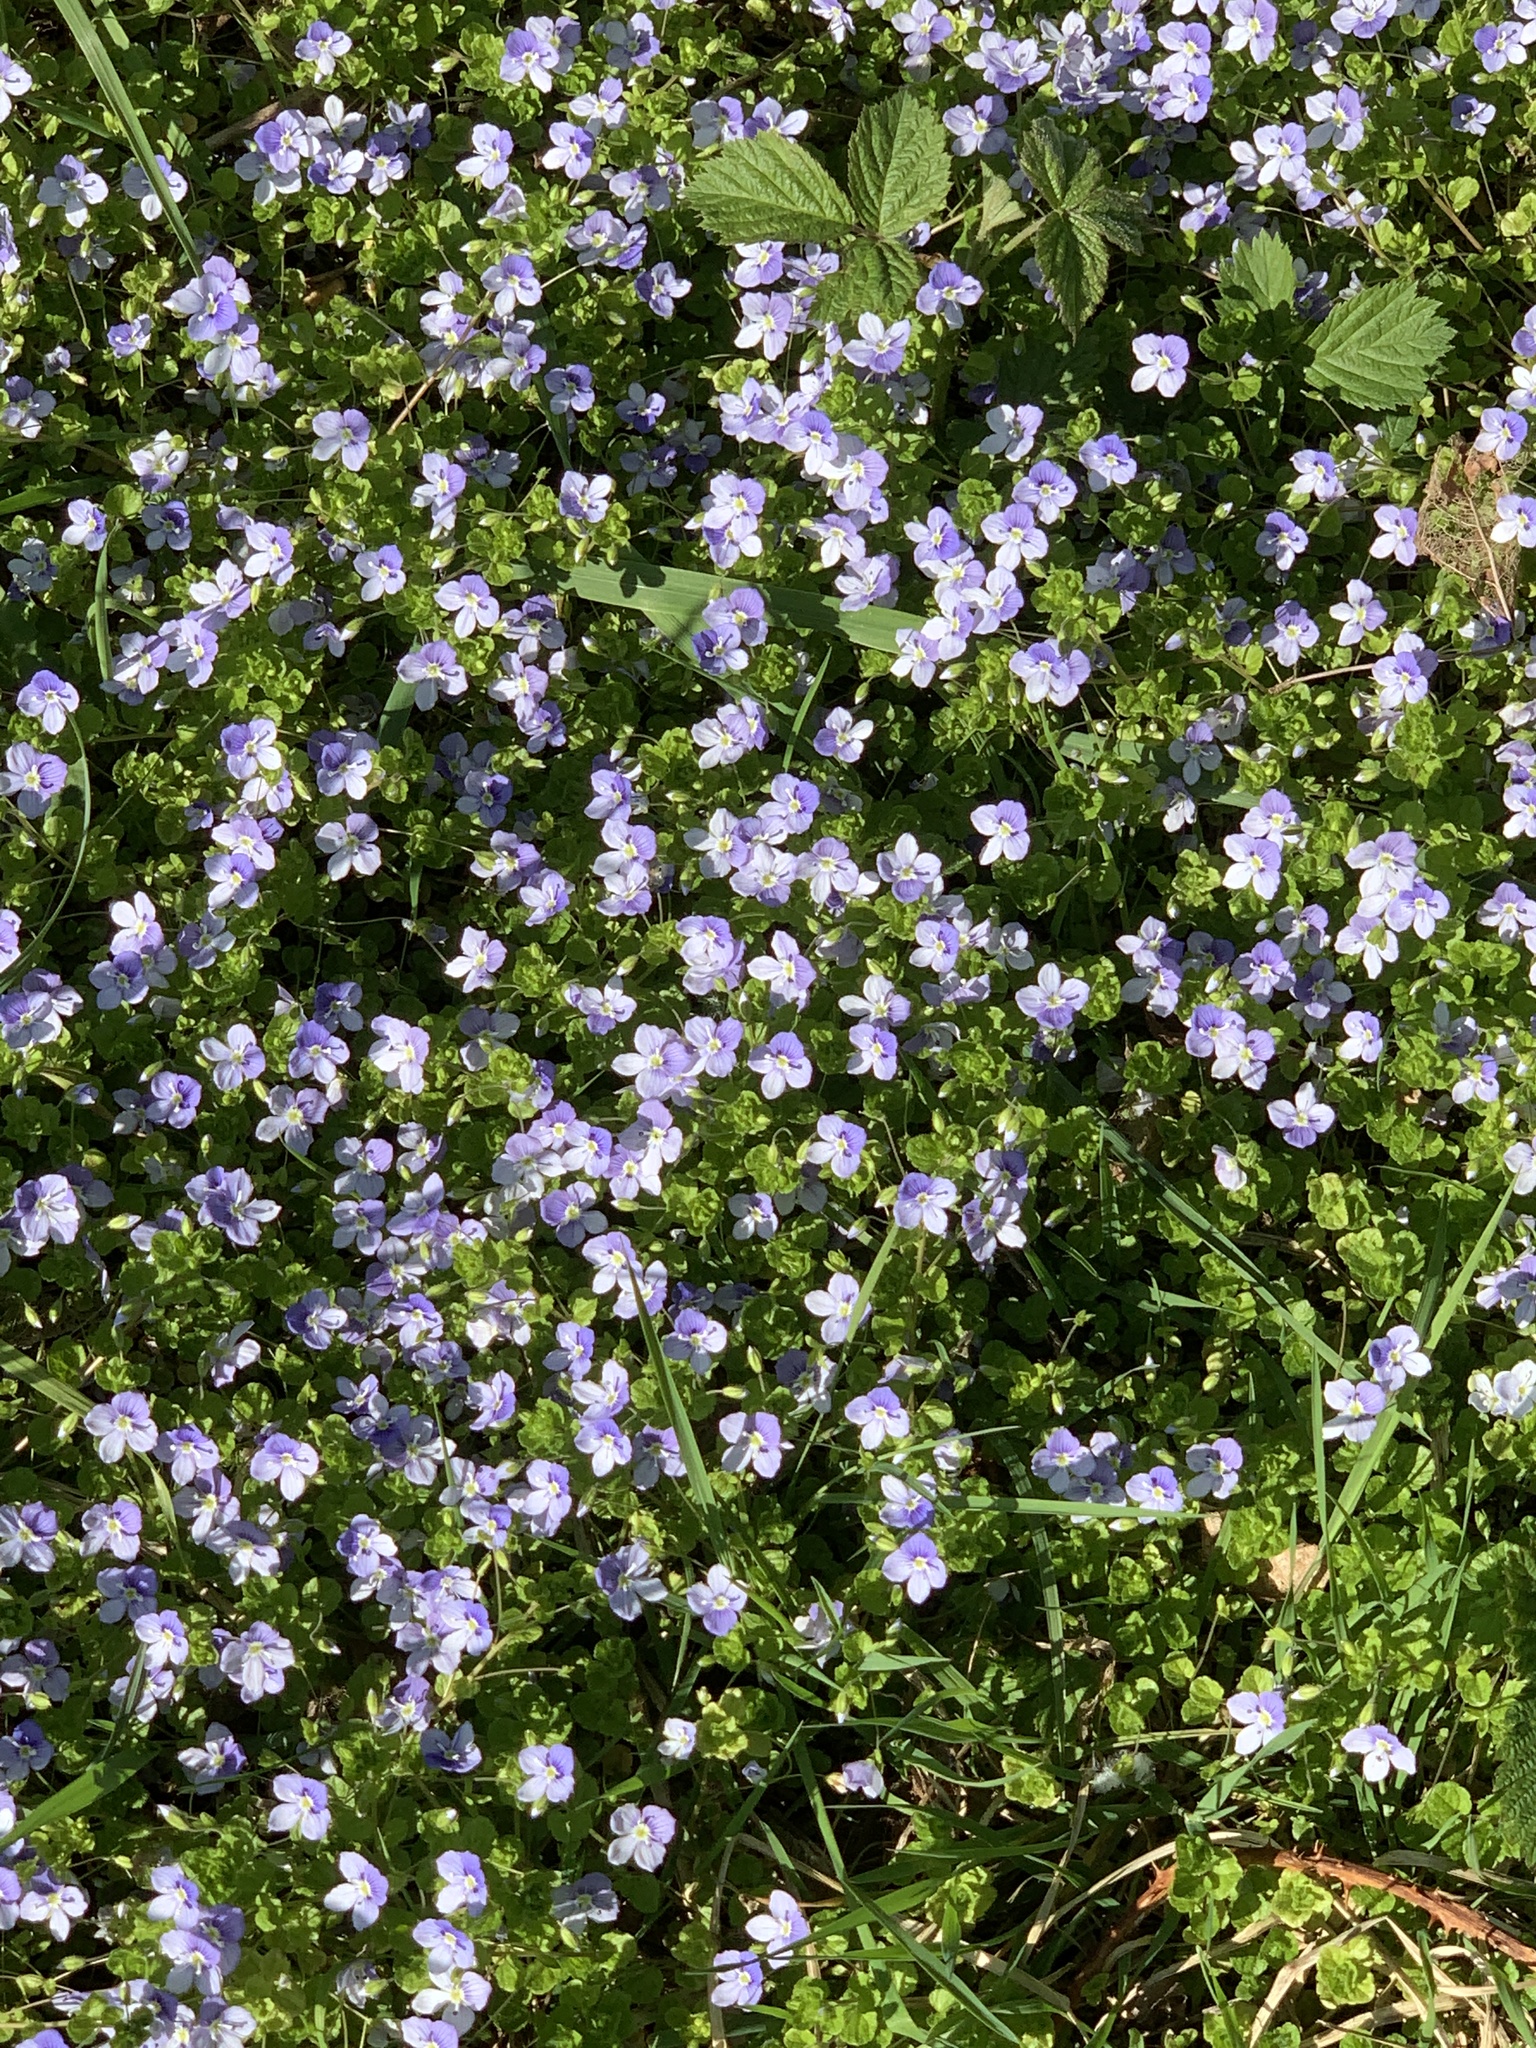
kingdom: Plantae
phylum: Tracheophyta
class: Magnoliopsida
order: Lamiales
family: Plantaginaceae
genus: Veronica
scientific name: Veronica filiformis
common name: Slender speedwell
